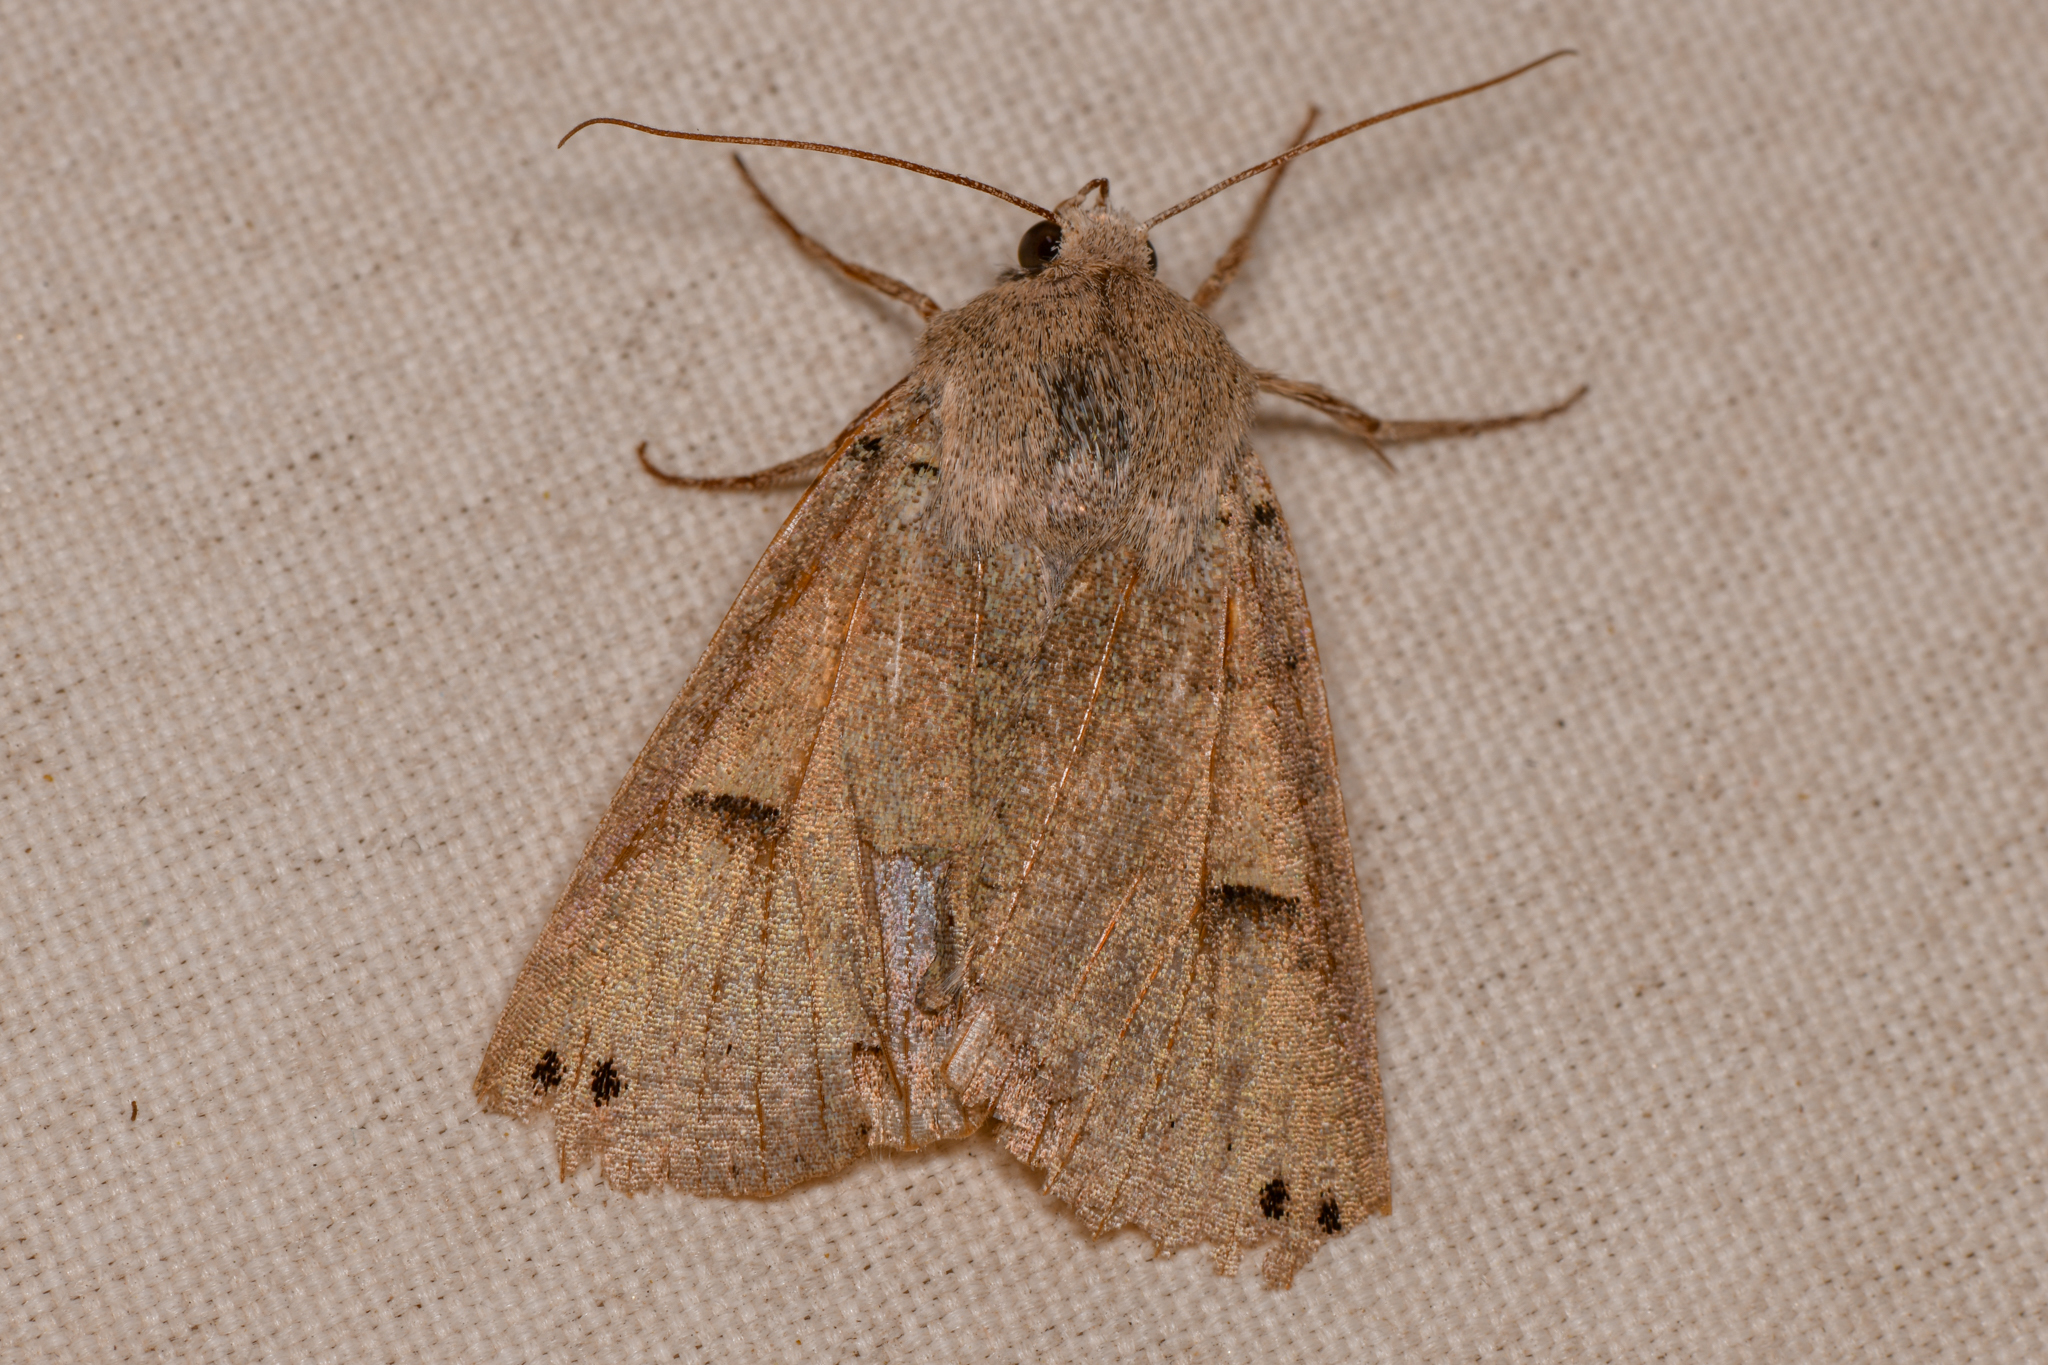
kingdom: Animalia
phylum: Arthropoda
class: Insecta
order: Lepidoptera
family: Erebidae
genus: Cissusa
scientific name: Cissusa indiscreta
